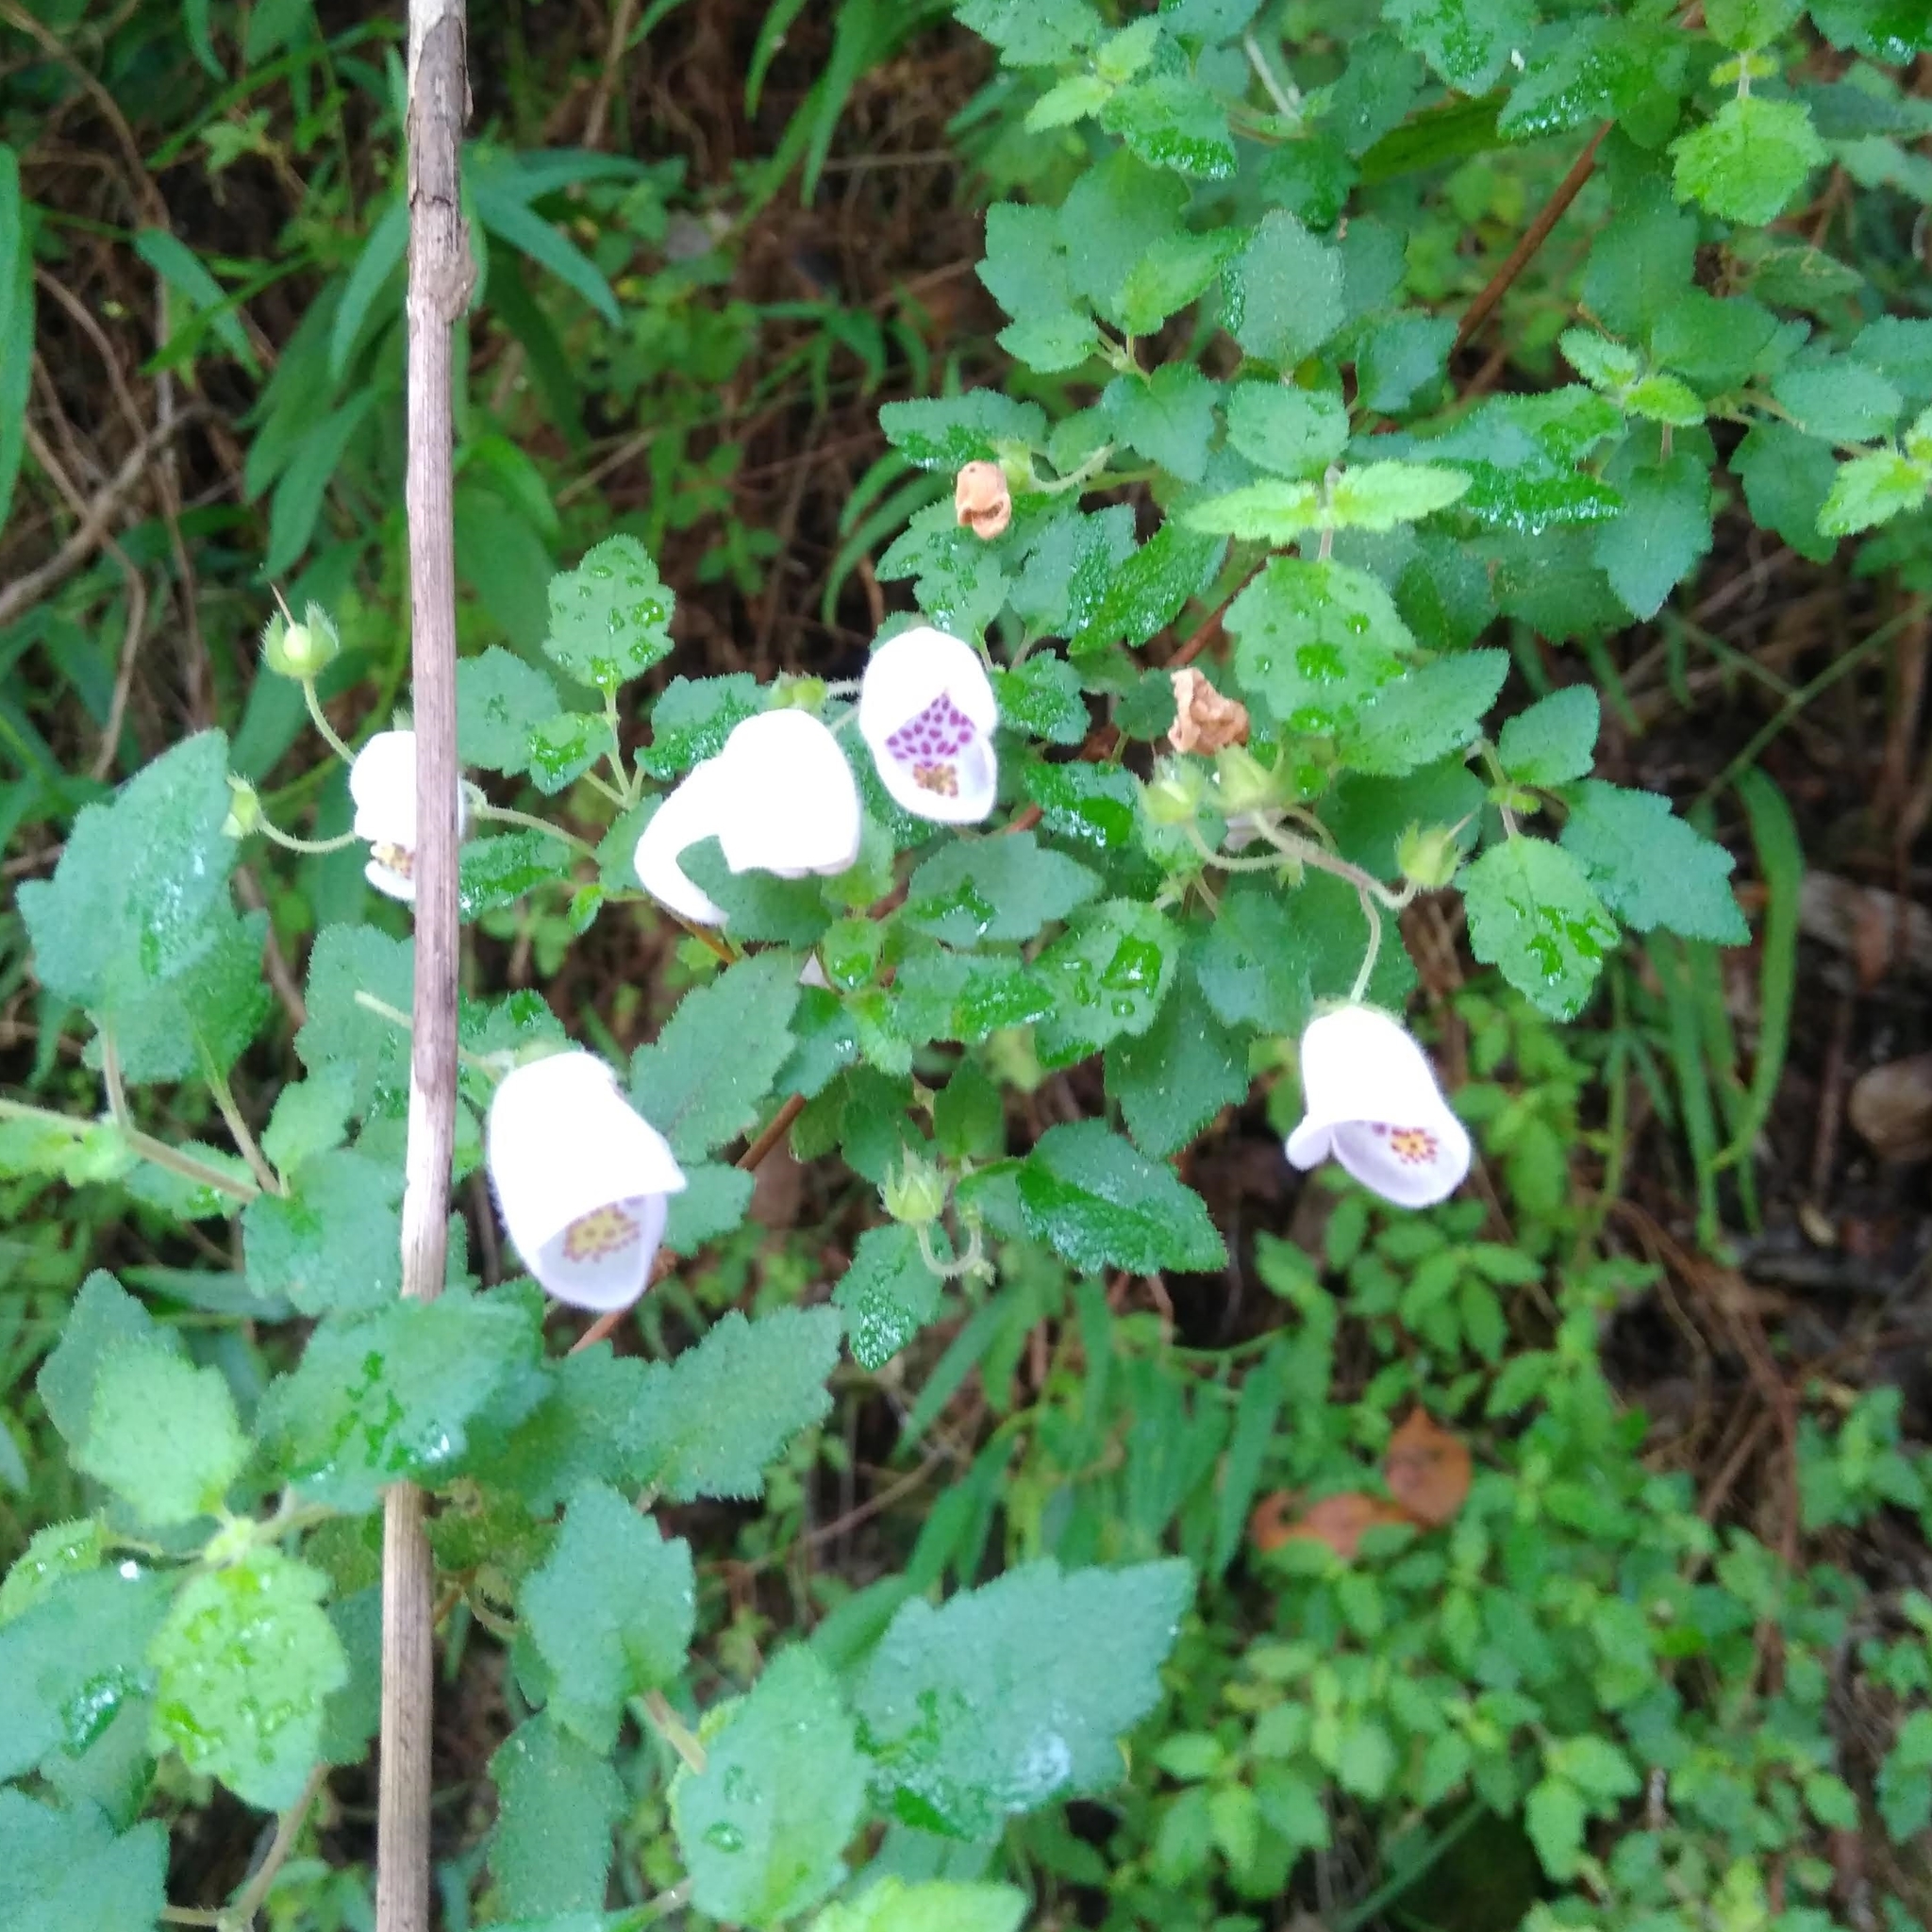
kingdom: Plantae
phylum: Tracheophyta
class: Magnoliopsida
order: Lamiales
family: Calceolariaceae
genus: Jovellana
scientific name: Jovellana violacea
